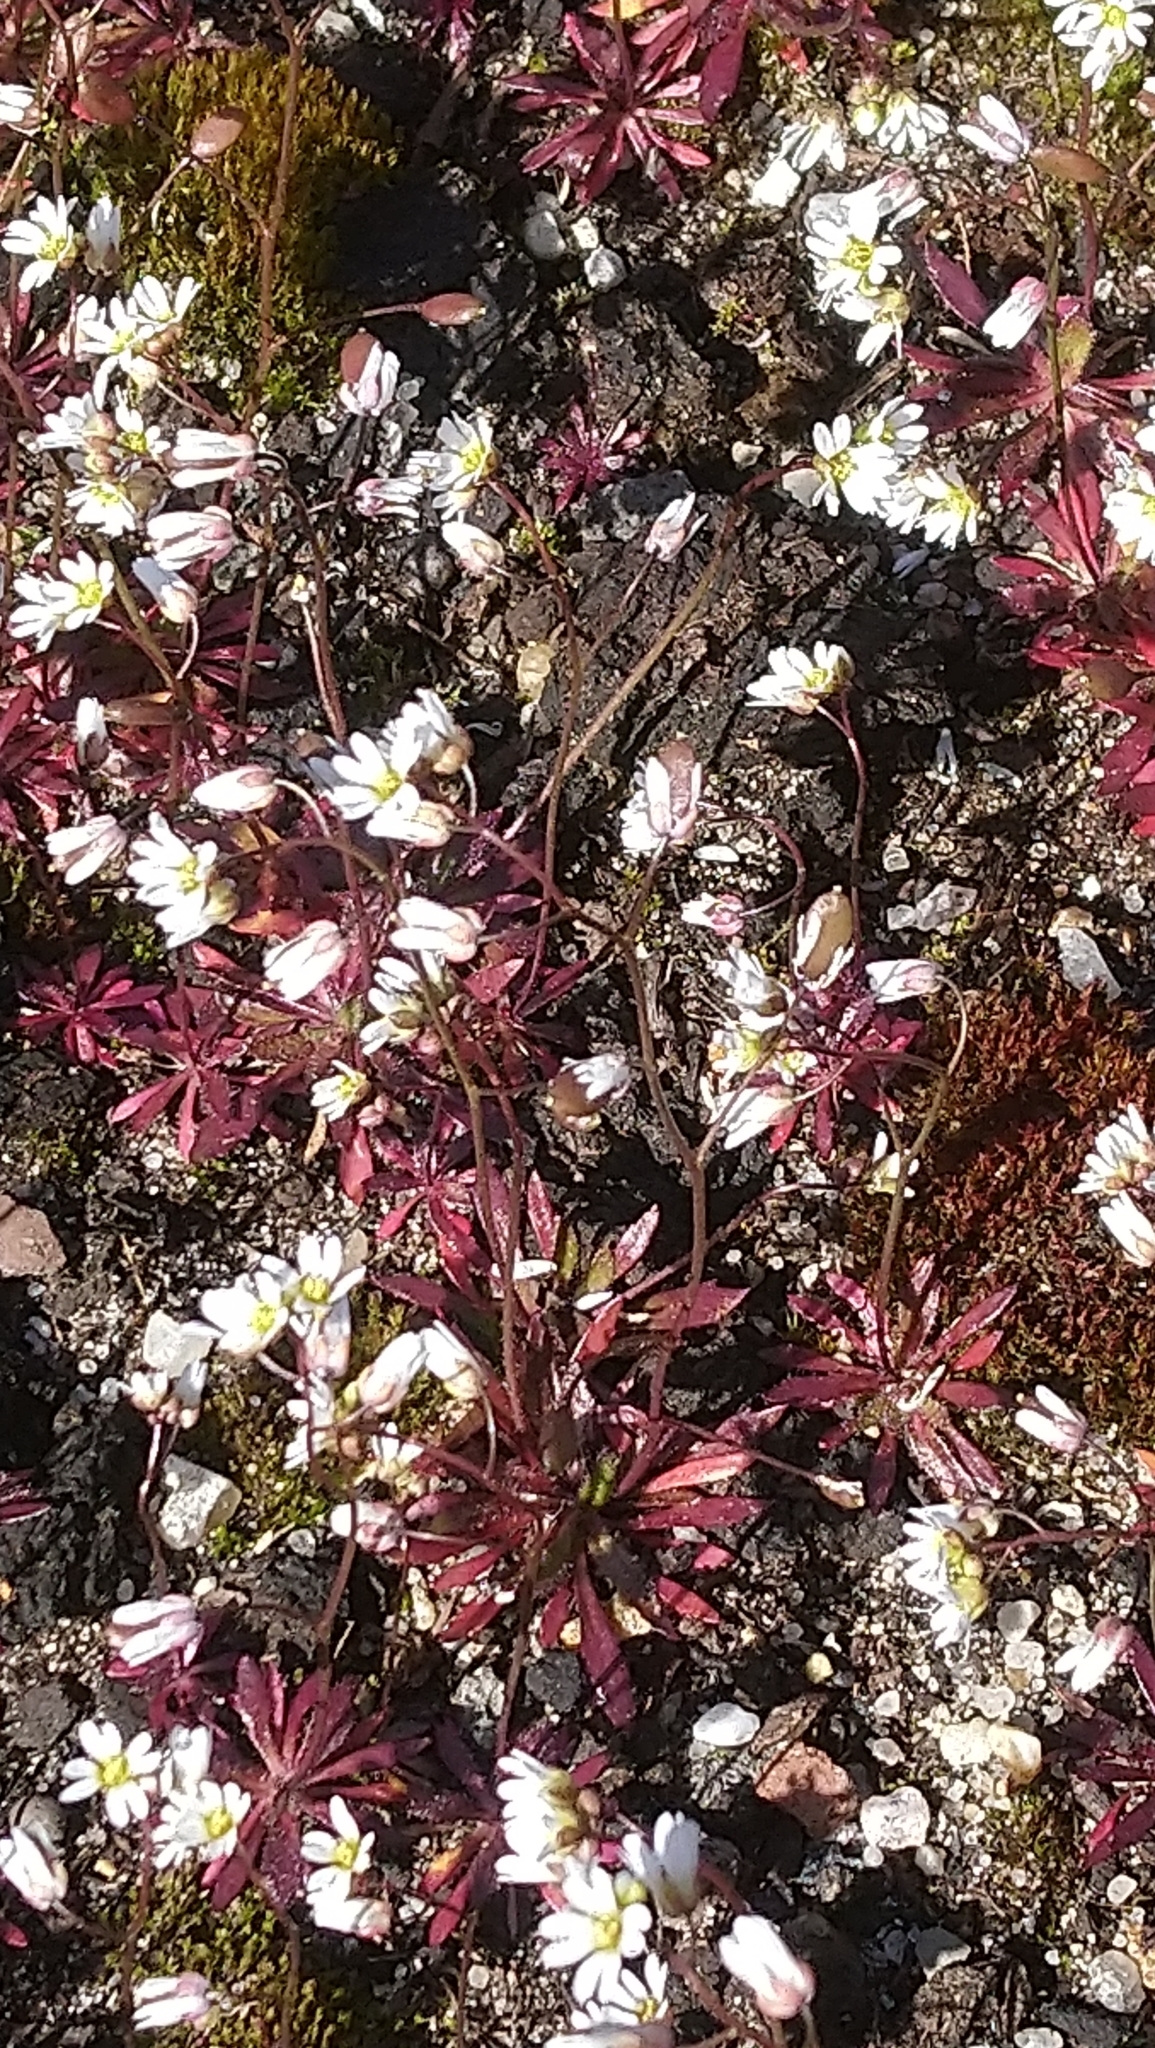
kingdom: Plantae
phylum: Tracheophyta
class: Magnoliopsida
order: Brassicales
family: Brassicaceae
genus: Draba
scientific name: Draba verna
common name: Spring draba
